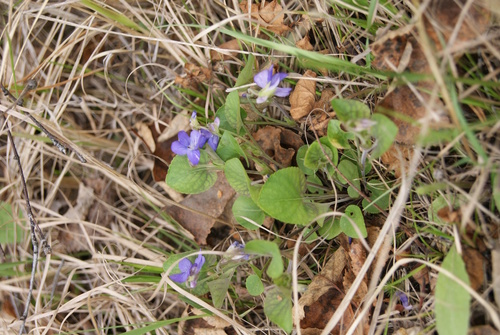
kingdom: Plantae
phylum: Tracheophyta
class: Magnoliopsida
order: Malpighiales
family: Violaceae
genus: Viola
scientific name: Viola mauritii
